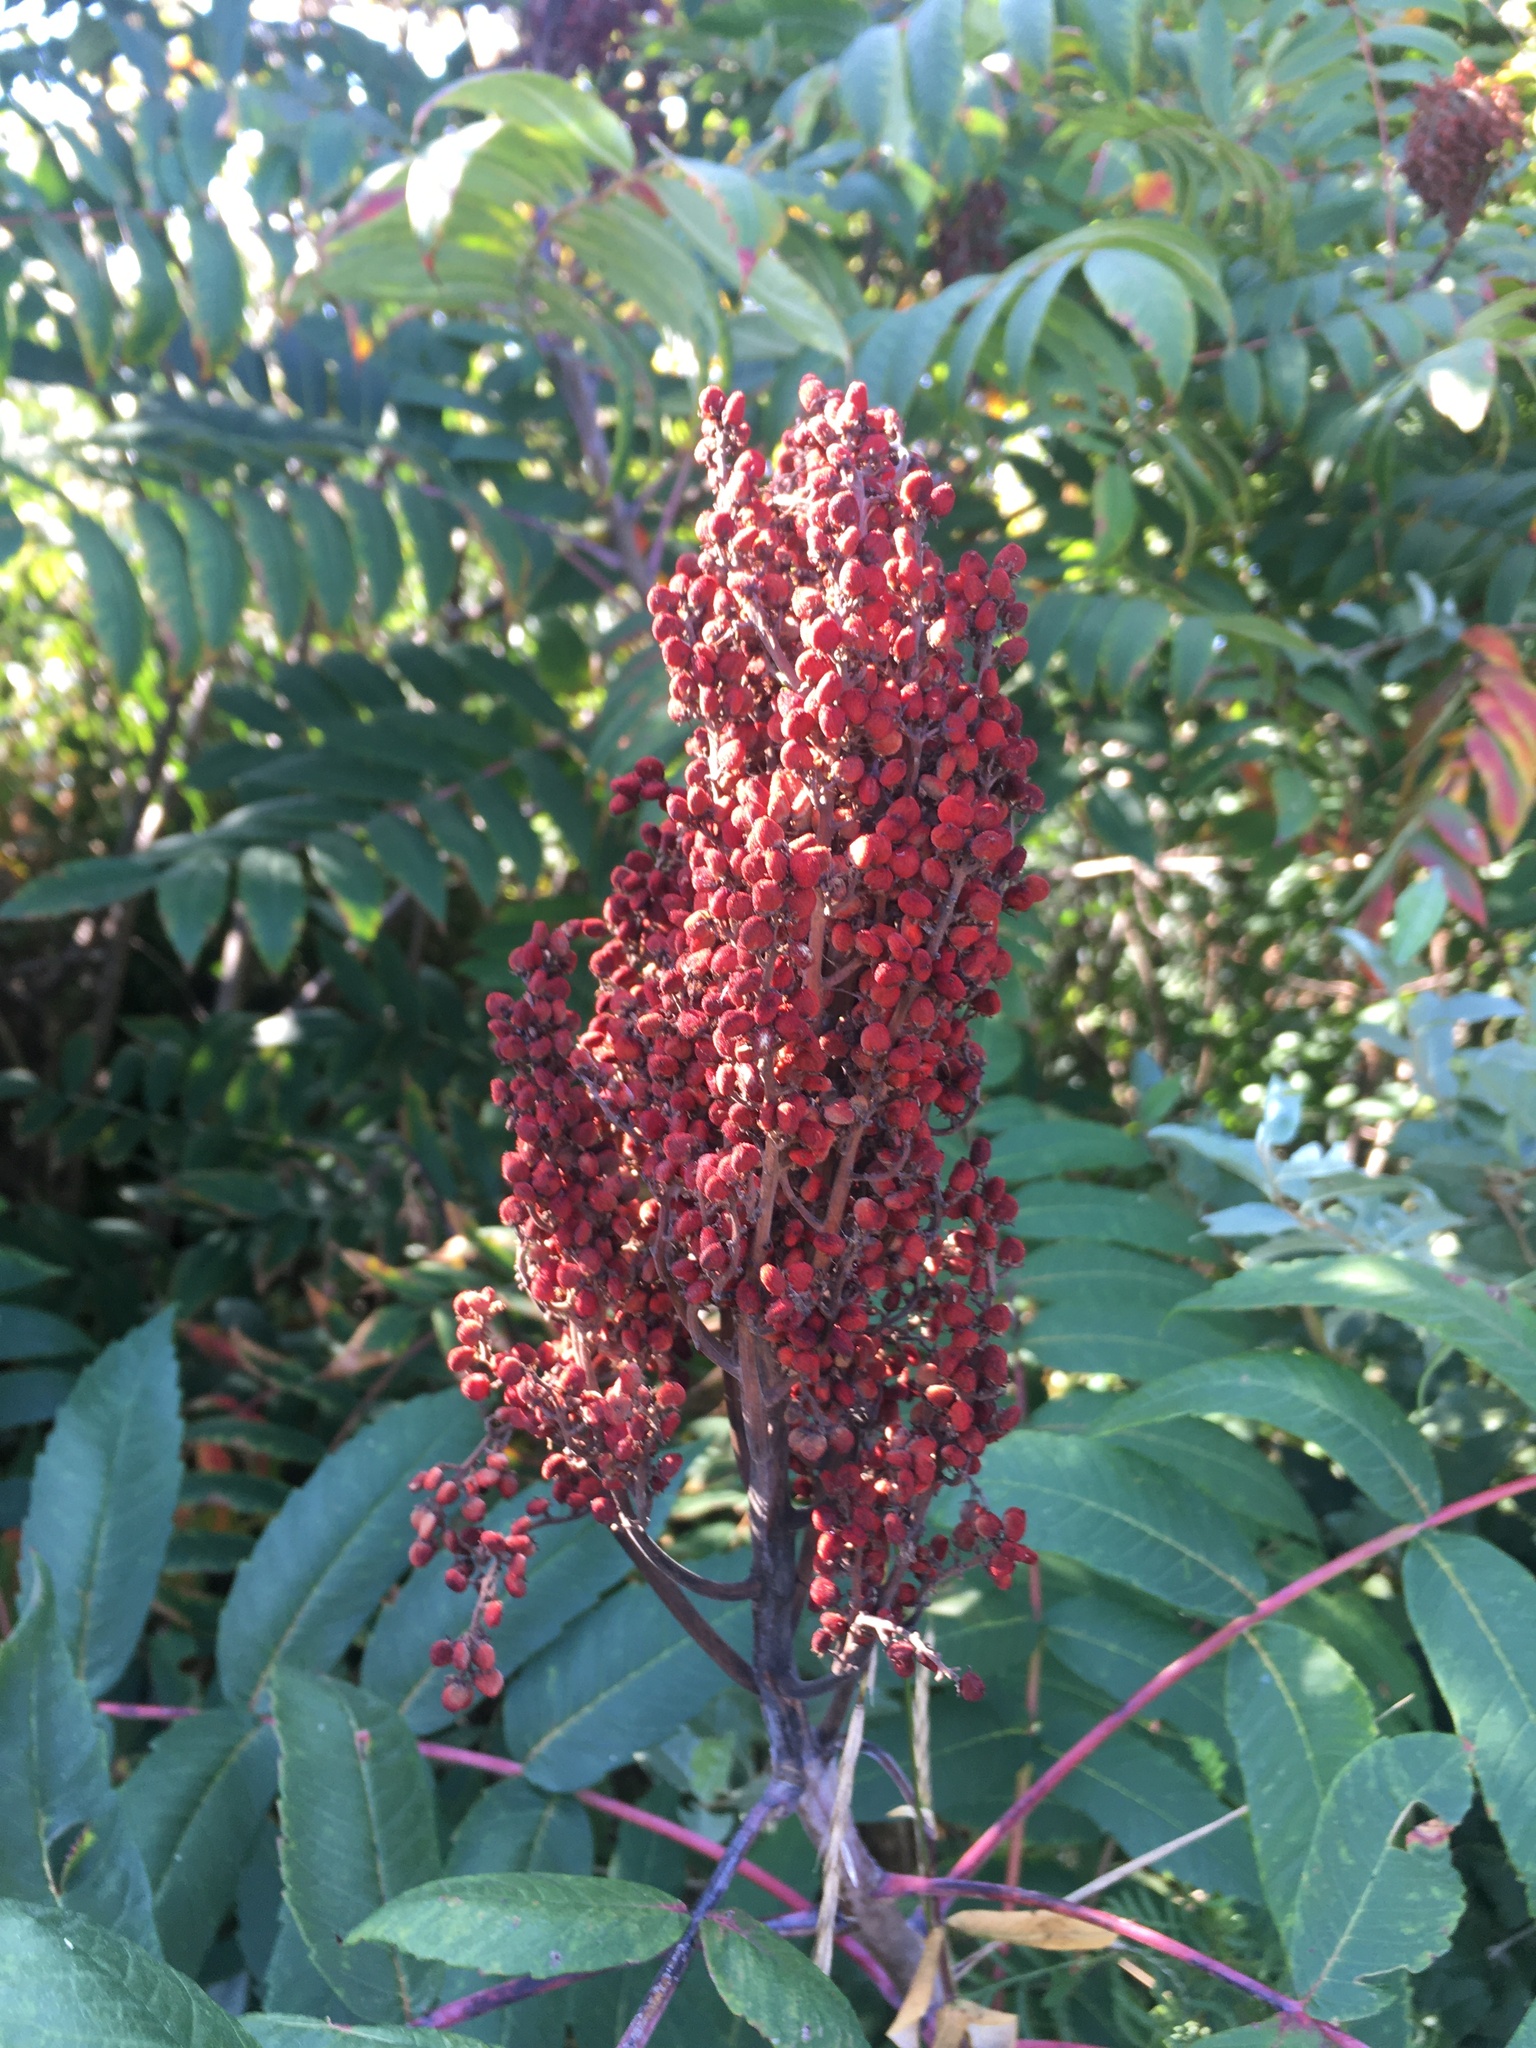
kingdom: Plantae
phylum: Tracheophyta
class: Magnoliopsida
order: Sapindales
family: Anacardiaceae
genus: Rhus
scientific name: Rhus glabra
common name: Scarlet sumac
